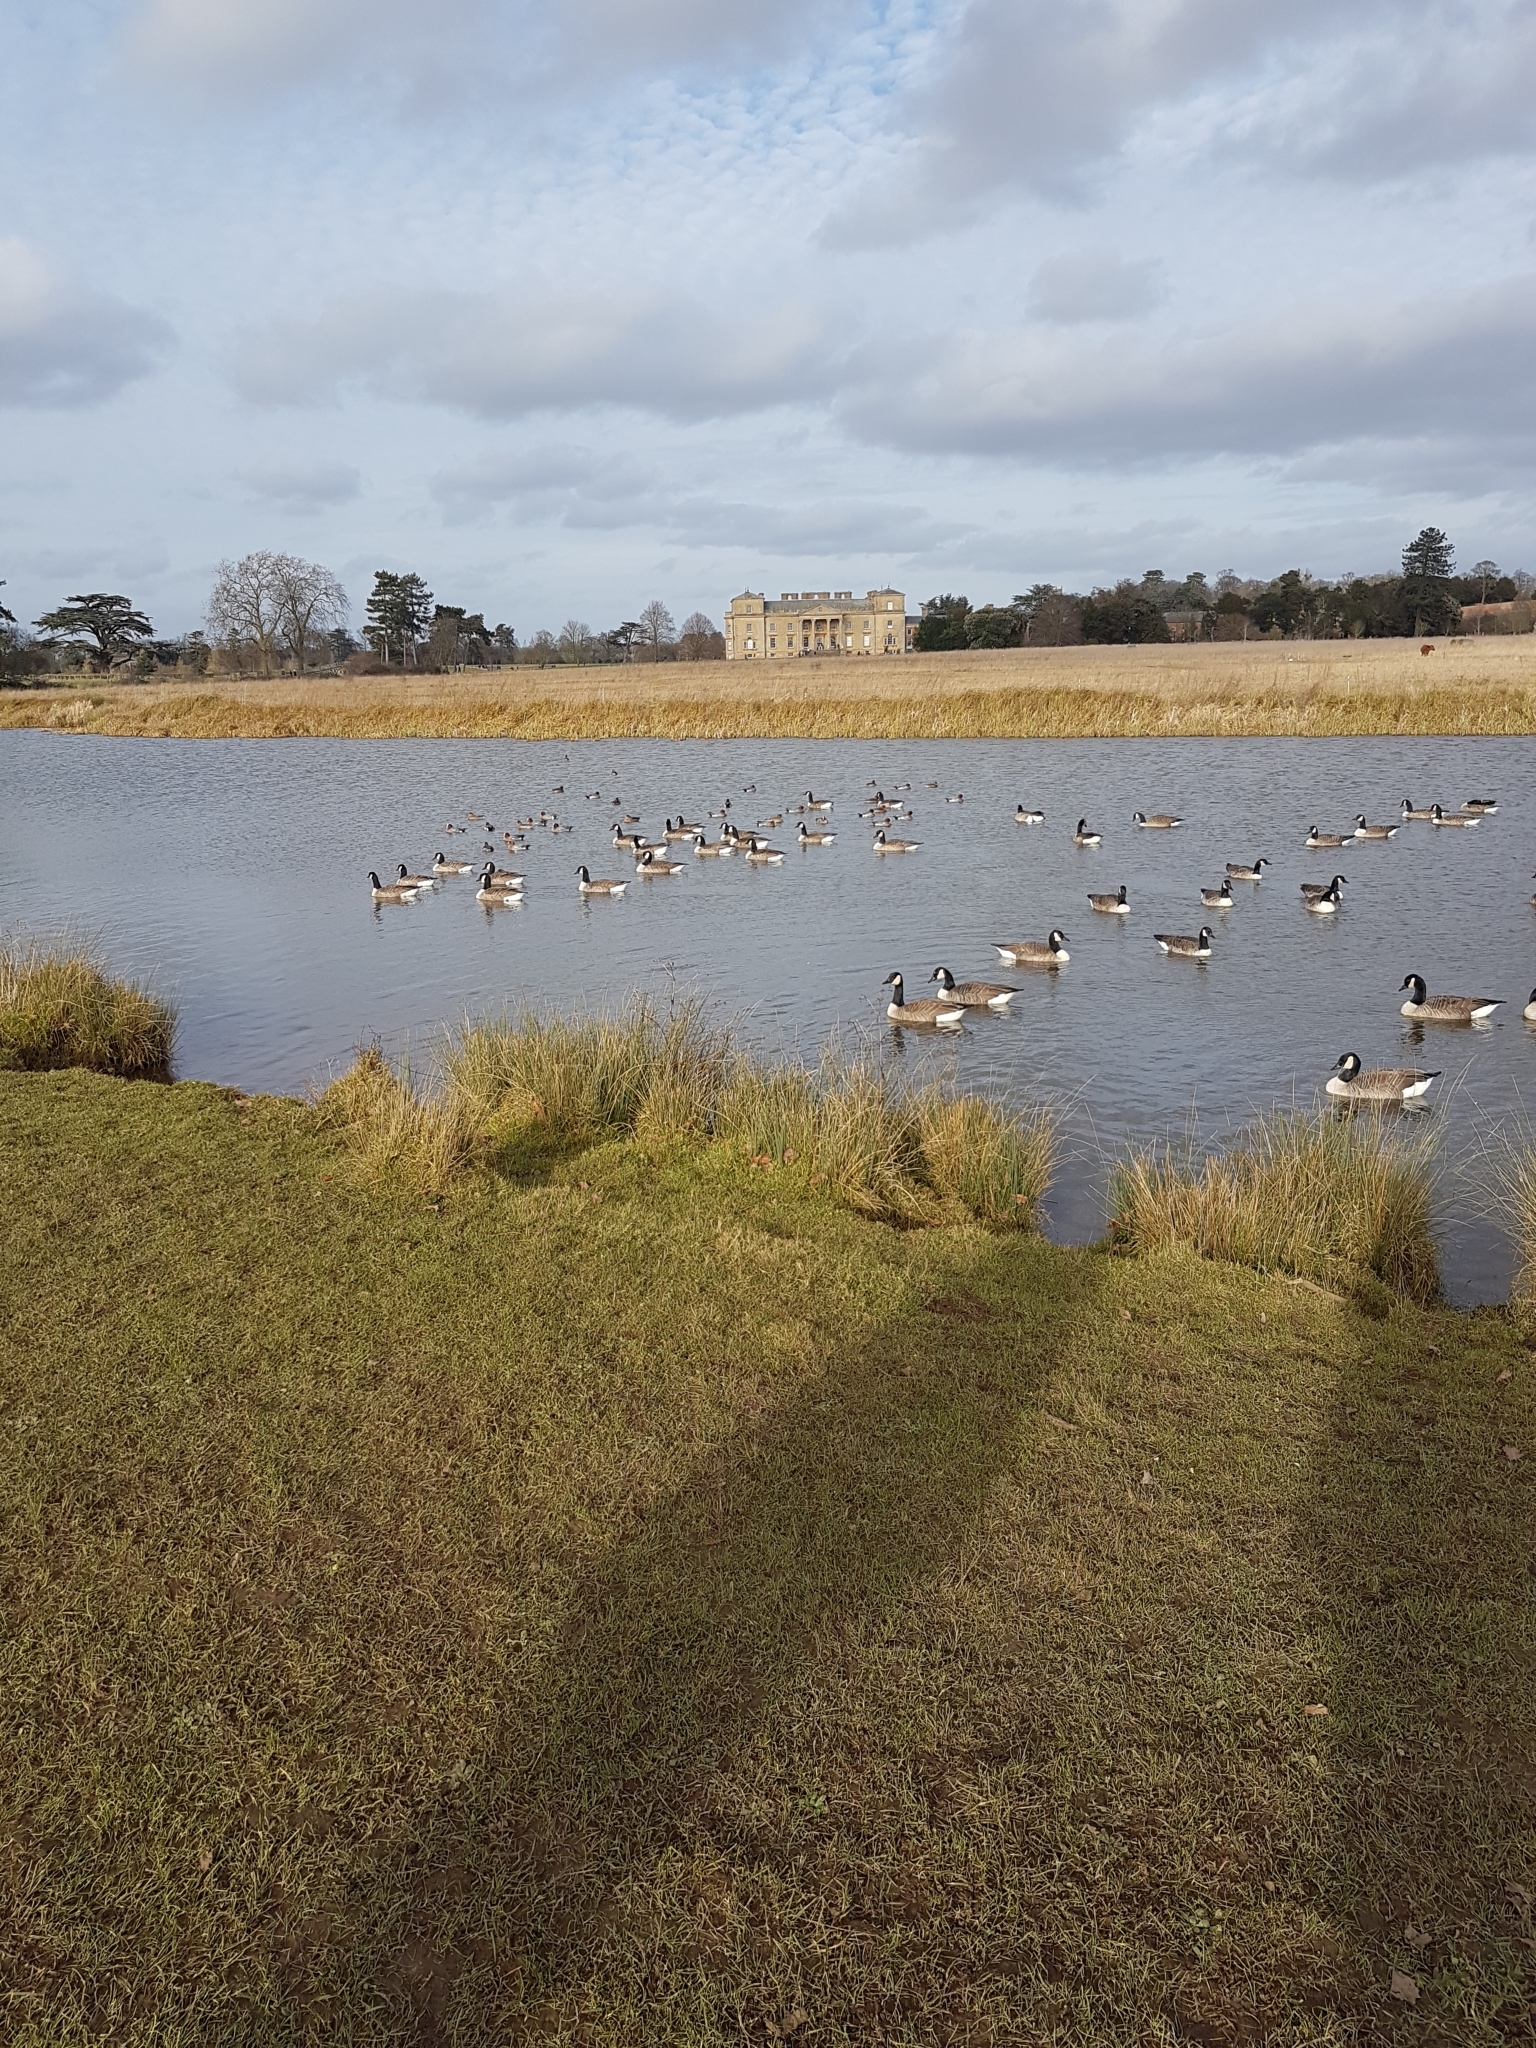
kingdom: Animalia
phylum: Chordata
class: Aves
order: Anseriformes
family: Anatidae
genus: Branta
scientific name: Branta canadensis
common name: Canada goose
